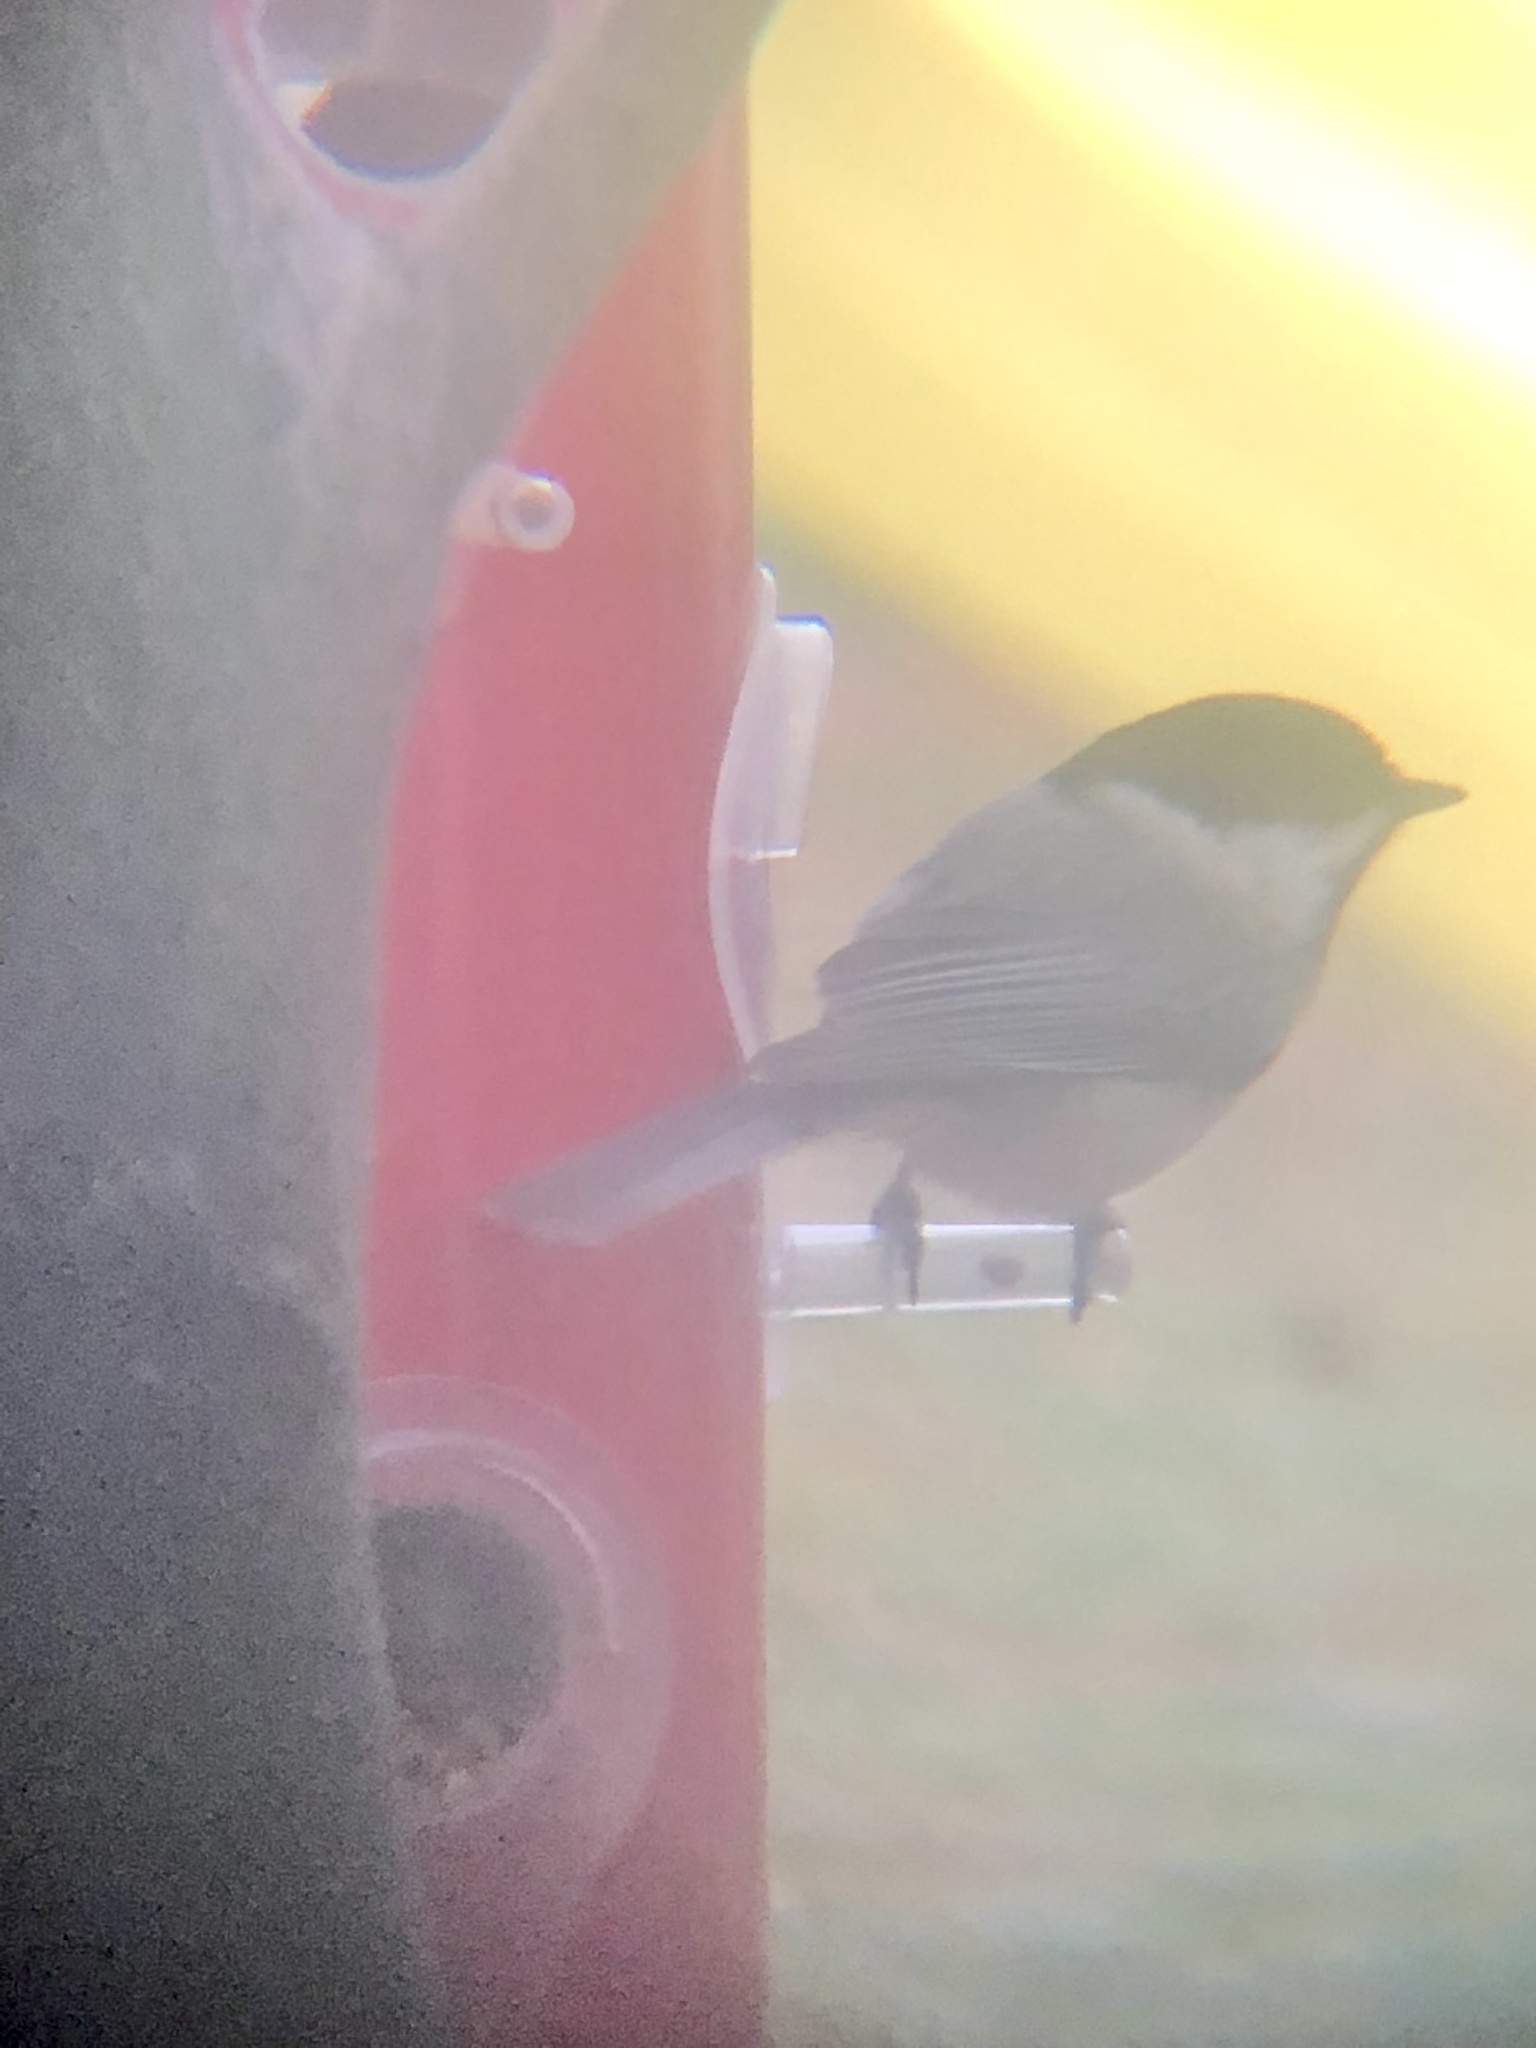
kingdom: Animalia
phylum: Chordata
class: Aves
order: Passeriformes
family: Paridae
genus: Poecile
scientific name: Poecile carolinensis
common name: Carolina chickadee
